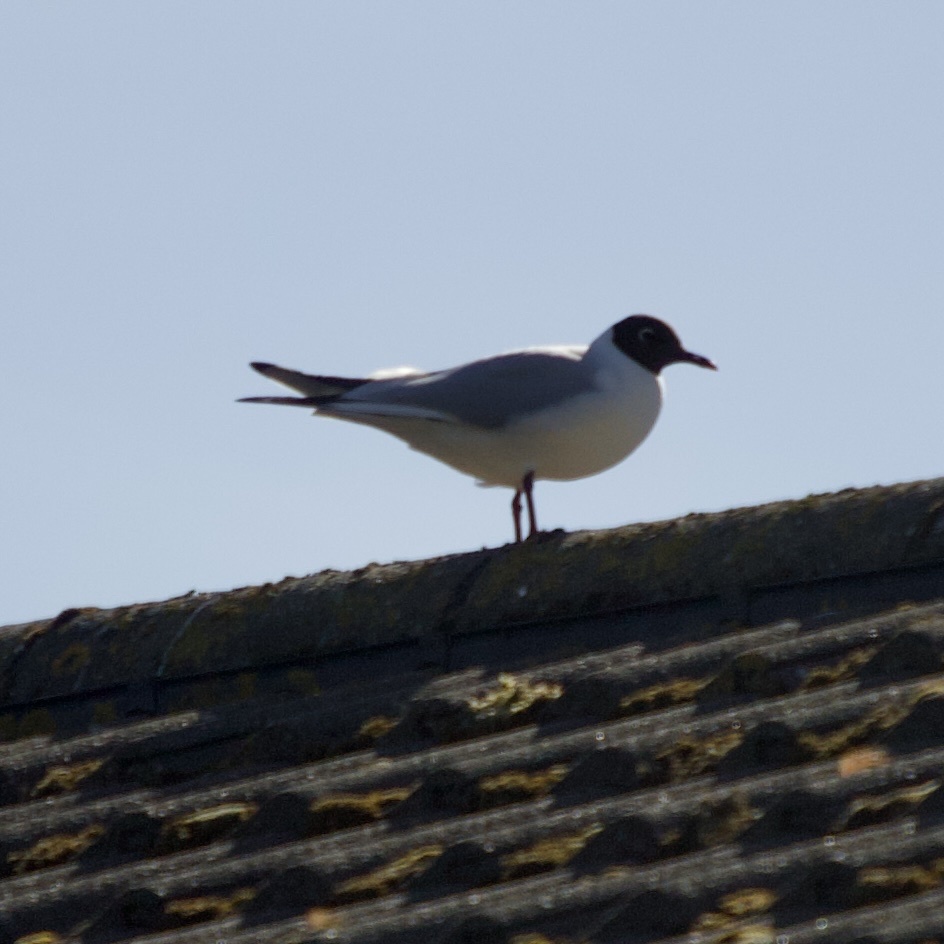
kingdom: Animalia
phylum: Chordata
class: Aves
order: Charadriiformes
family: Laridae
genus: Chroicocephalus
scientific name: Chroicocephalus ridibundus
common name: Black-headed gull
